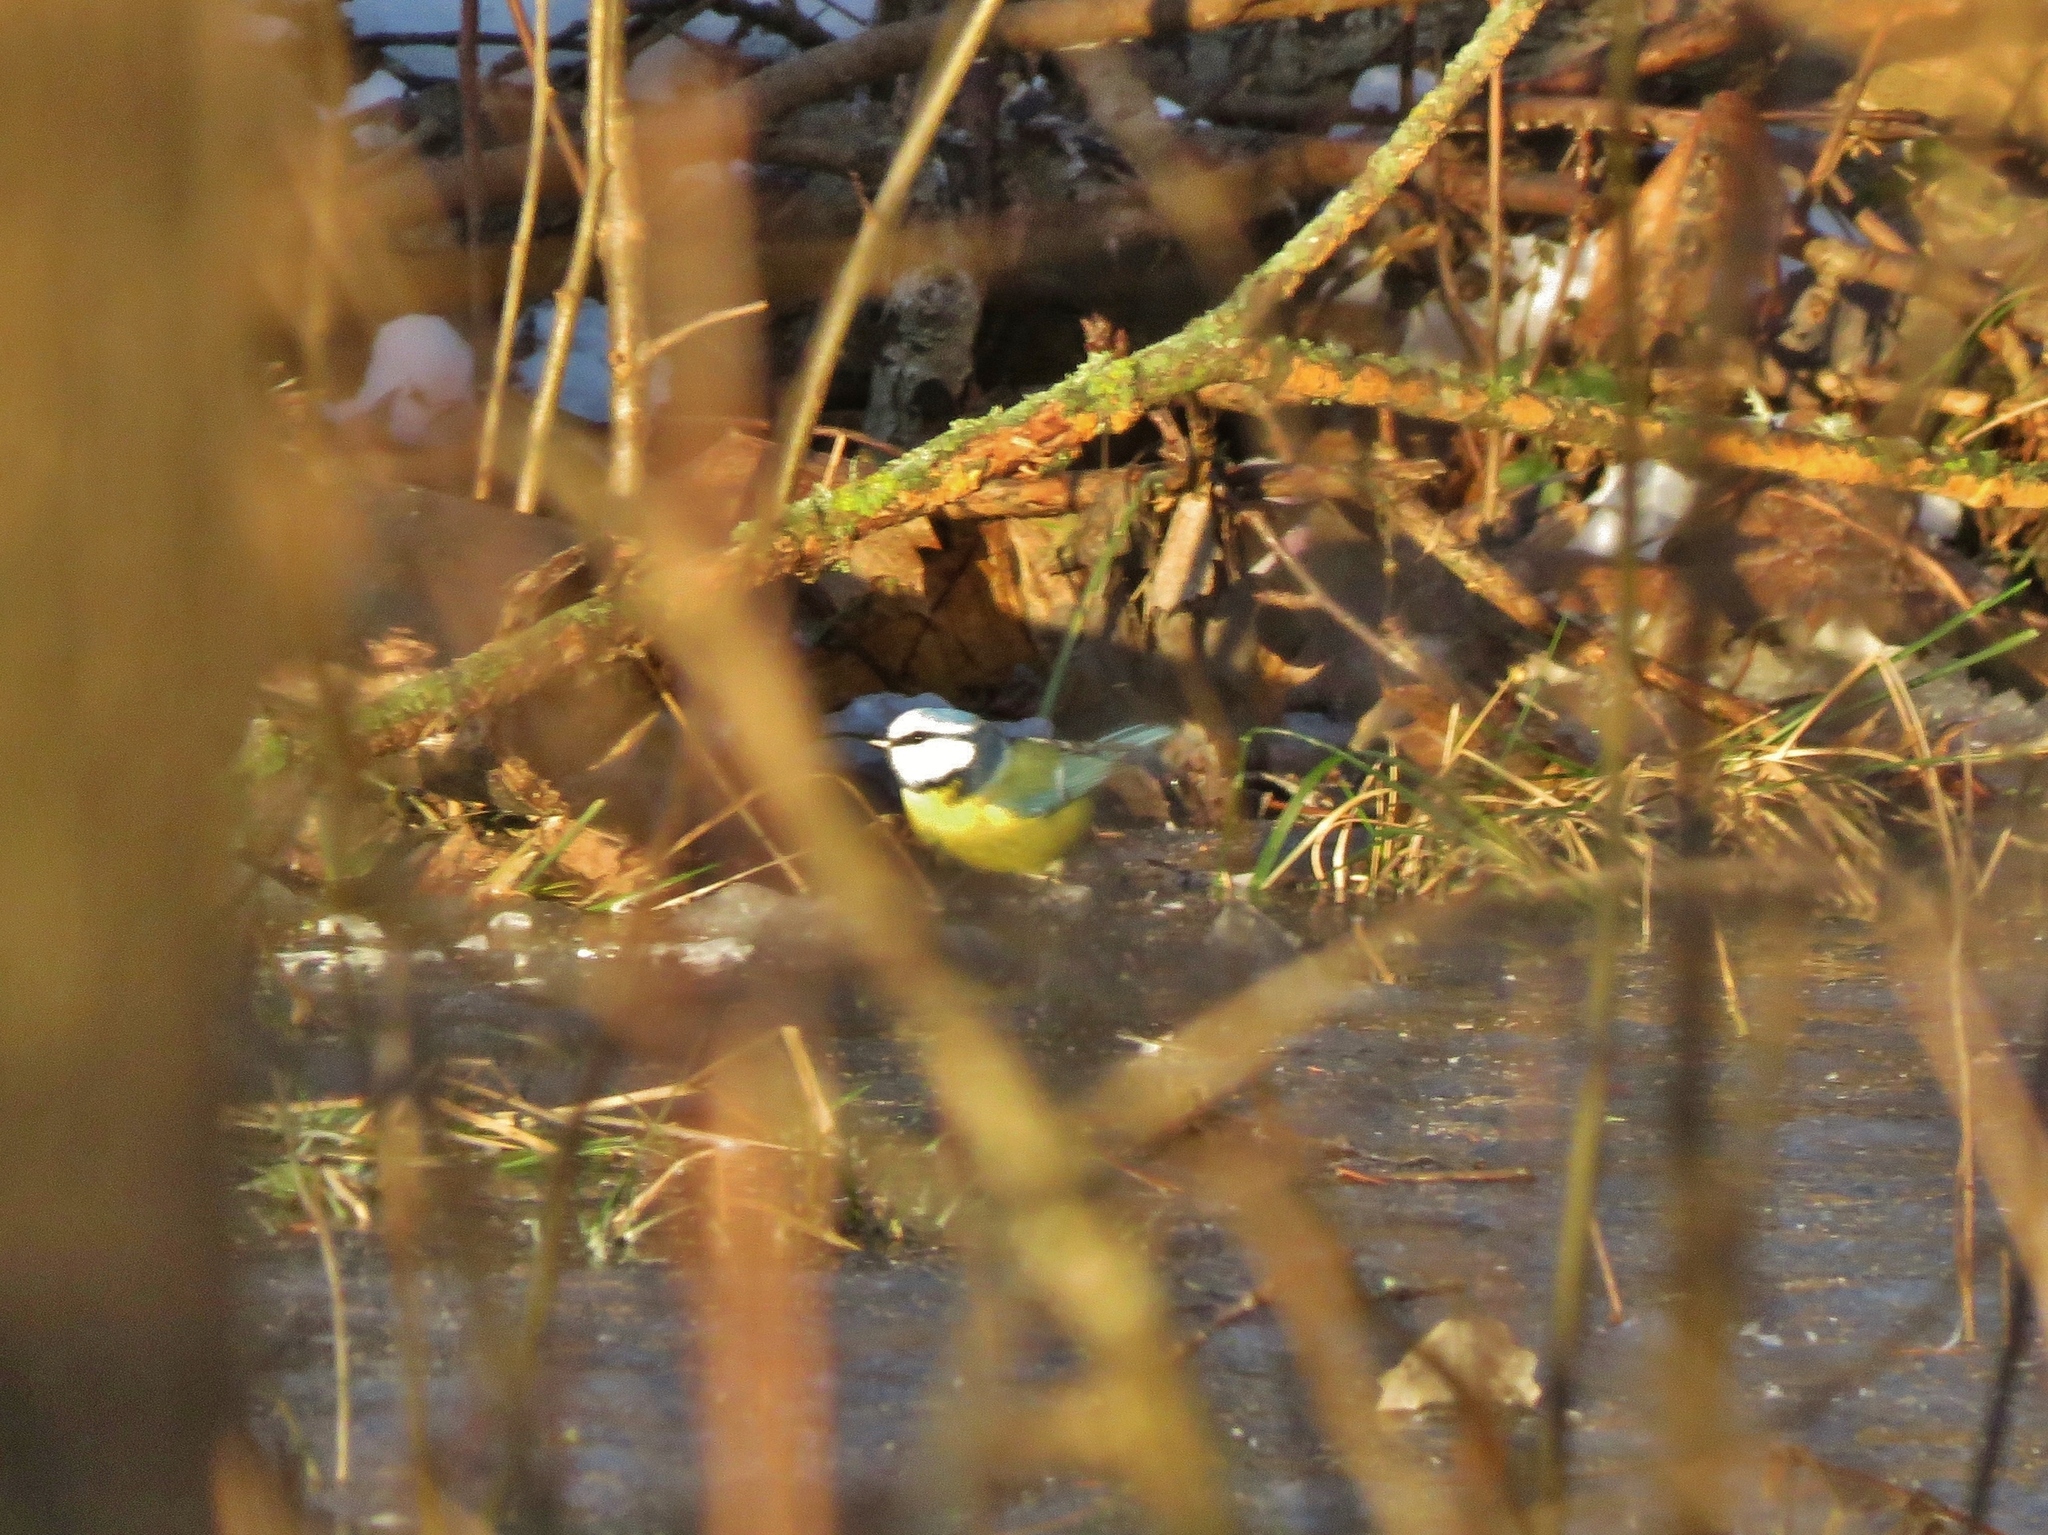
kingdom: Animalia
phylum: Chordata
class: Aves
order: Passeriformes
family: Paridae
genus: Cyanistes
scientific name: Cyanistes caeruleus
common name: Eurasian blue tit
